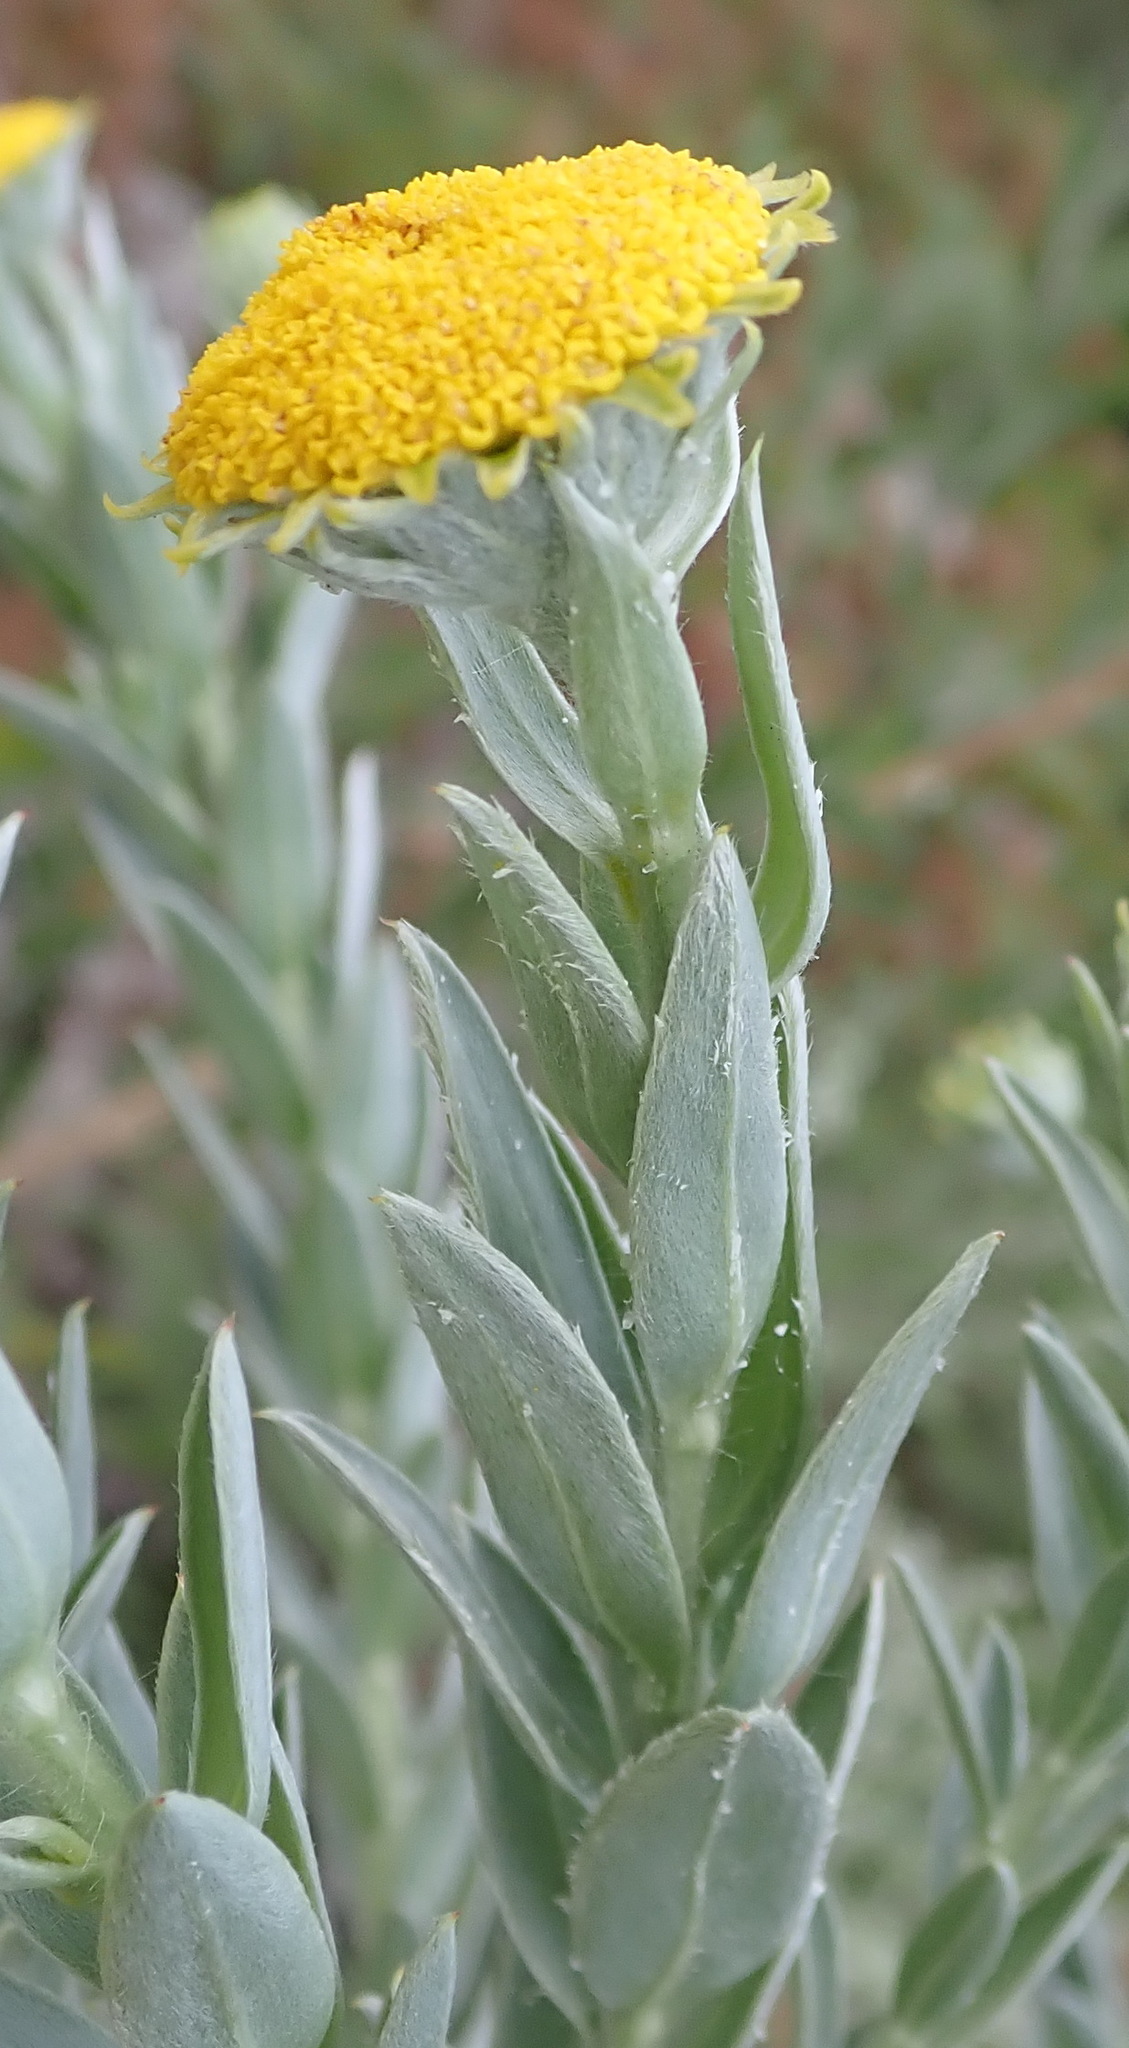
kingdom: Plantae
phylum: Tracheophyta
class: Magnoliopsida
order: Asterales
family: Asteraceae
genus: Schistostephium
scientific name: Schistostephium umbellatum
